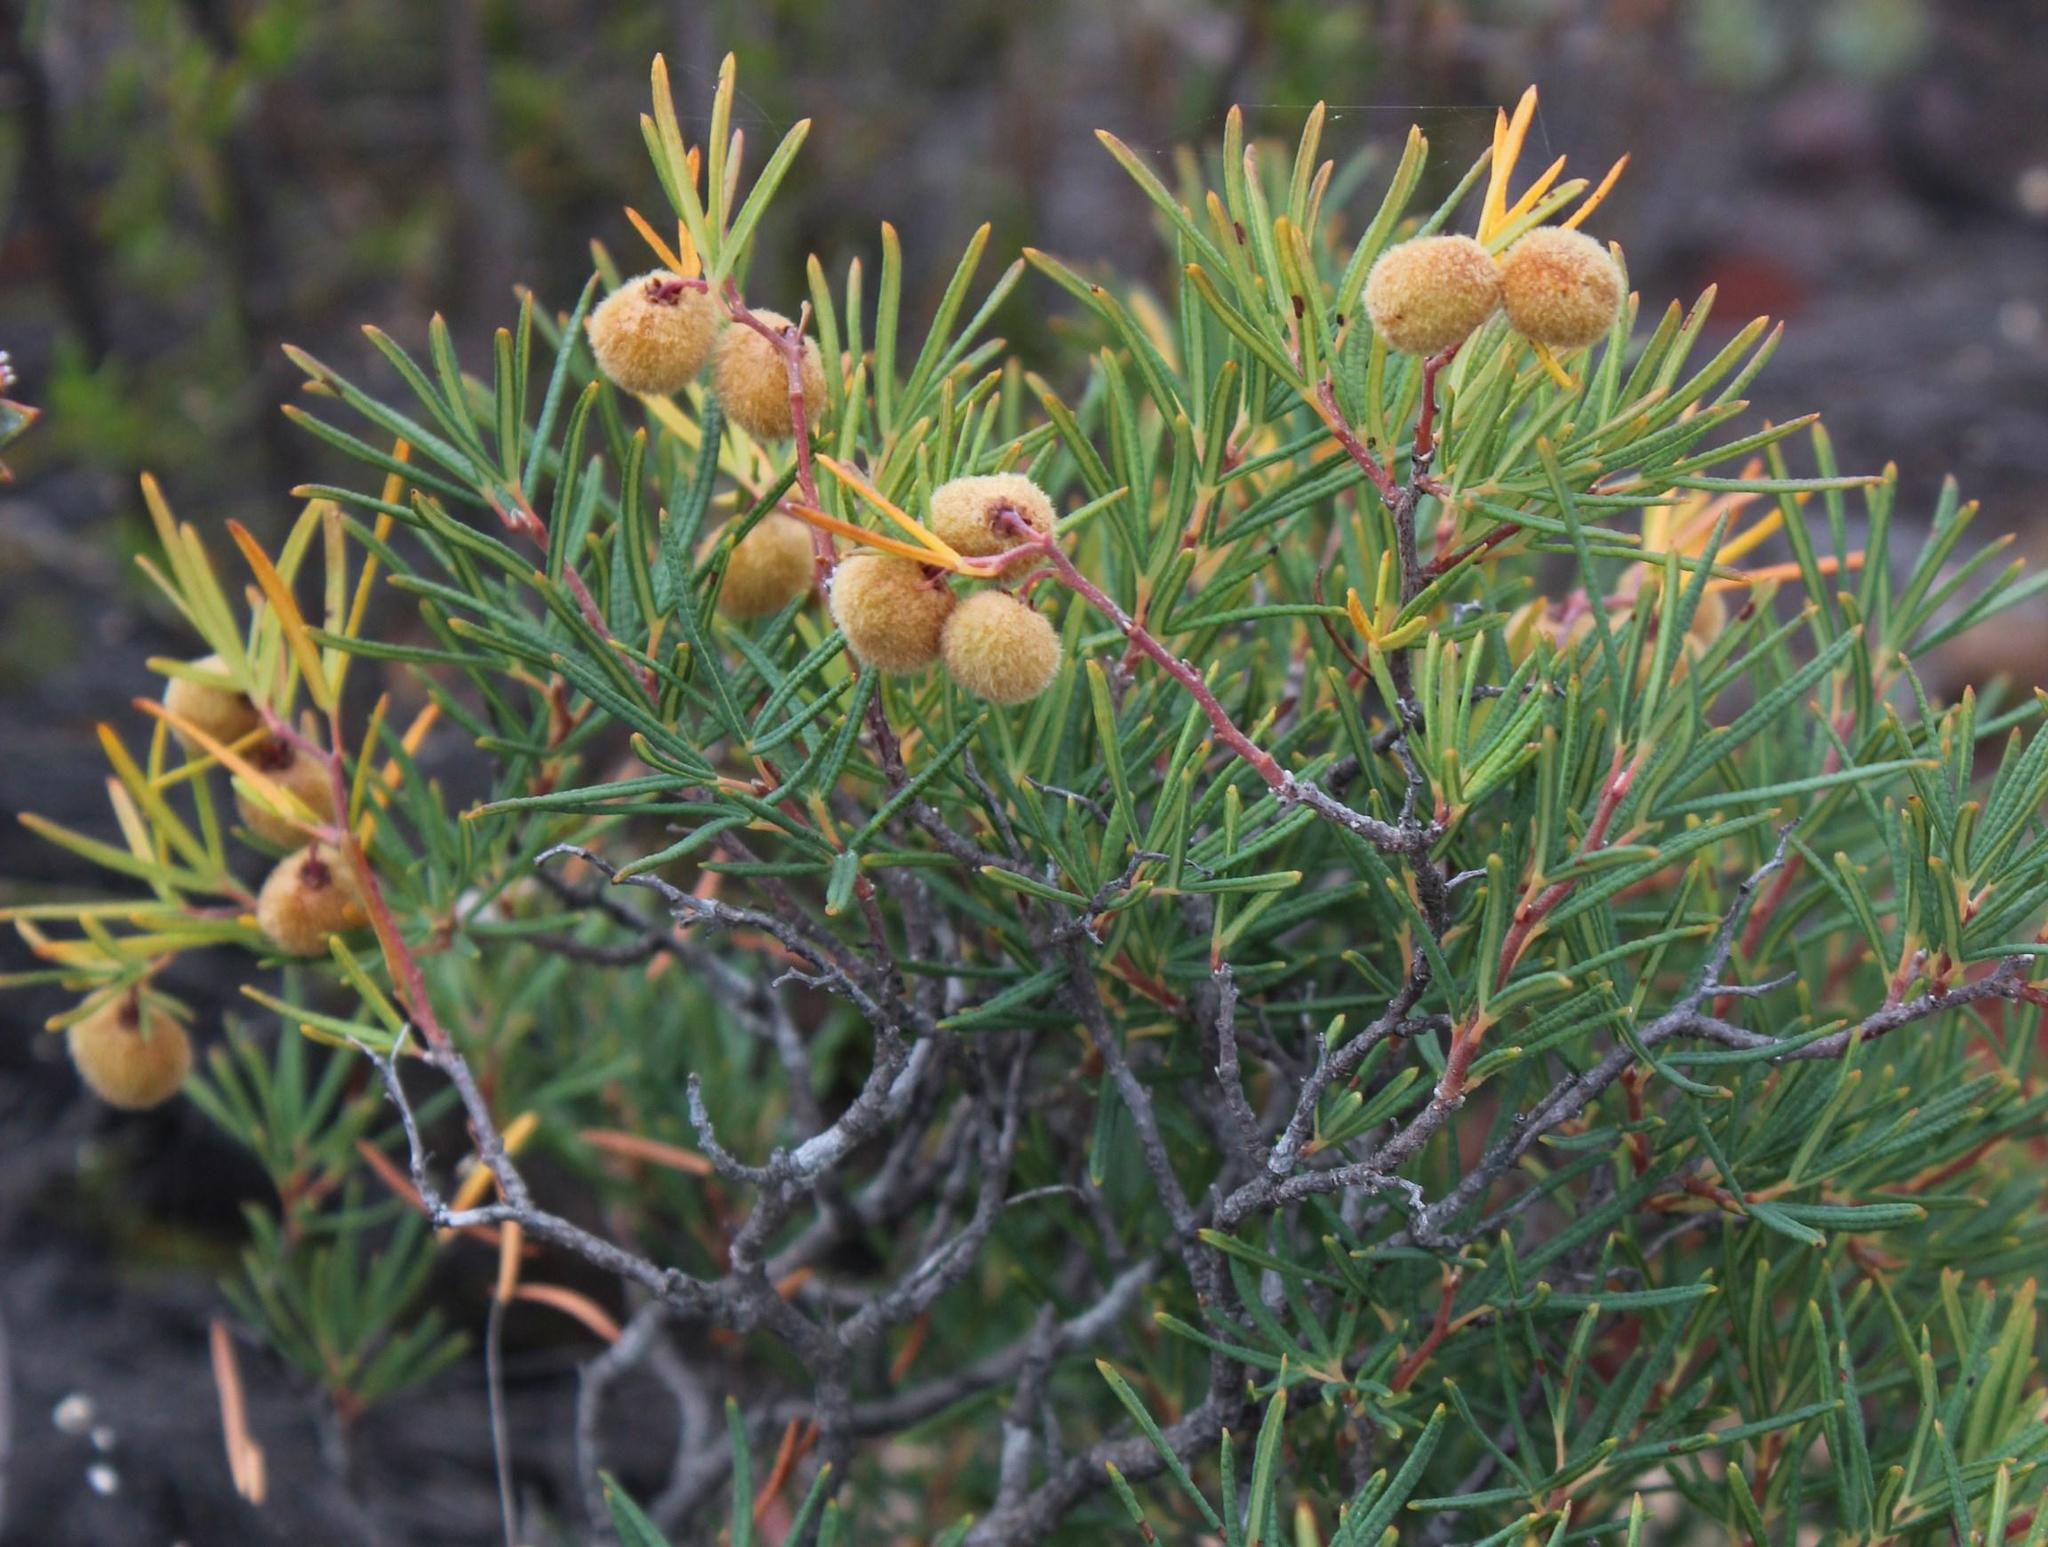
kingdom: Plantae
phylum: Tracheophyta
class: Magnoliopsida
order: Sapindales
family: Anacardiaceae
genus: Searsia
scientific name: Searsia rosmarinifolia
